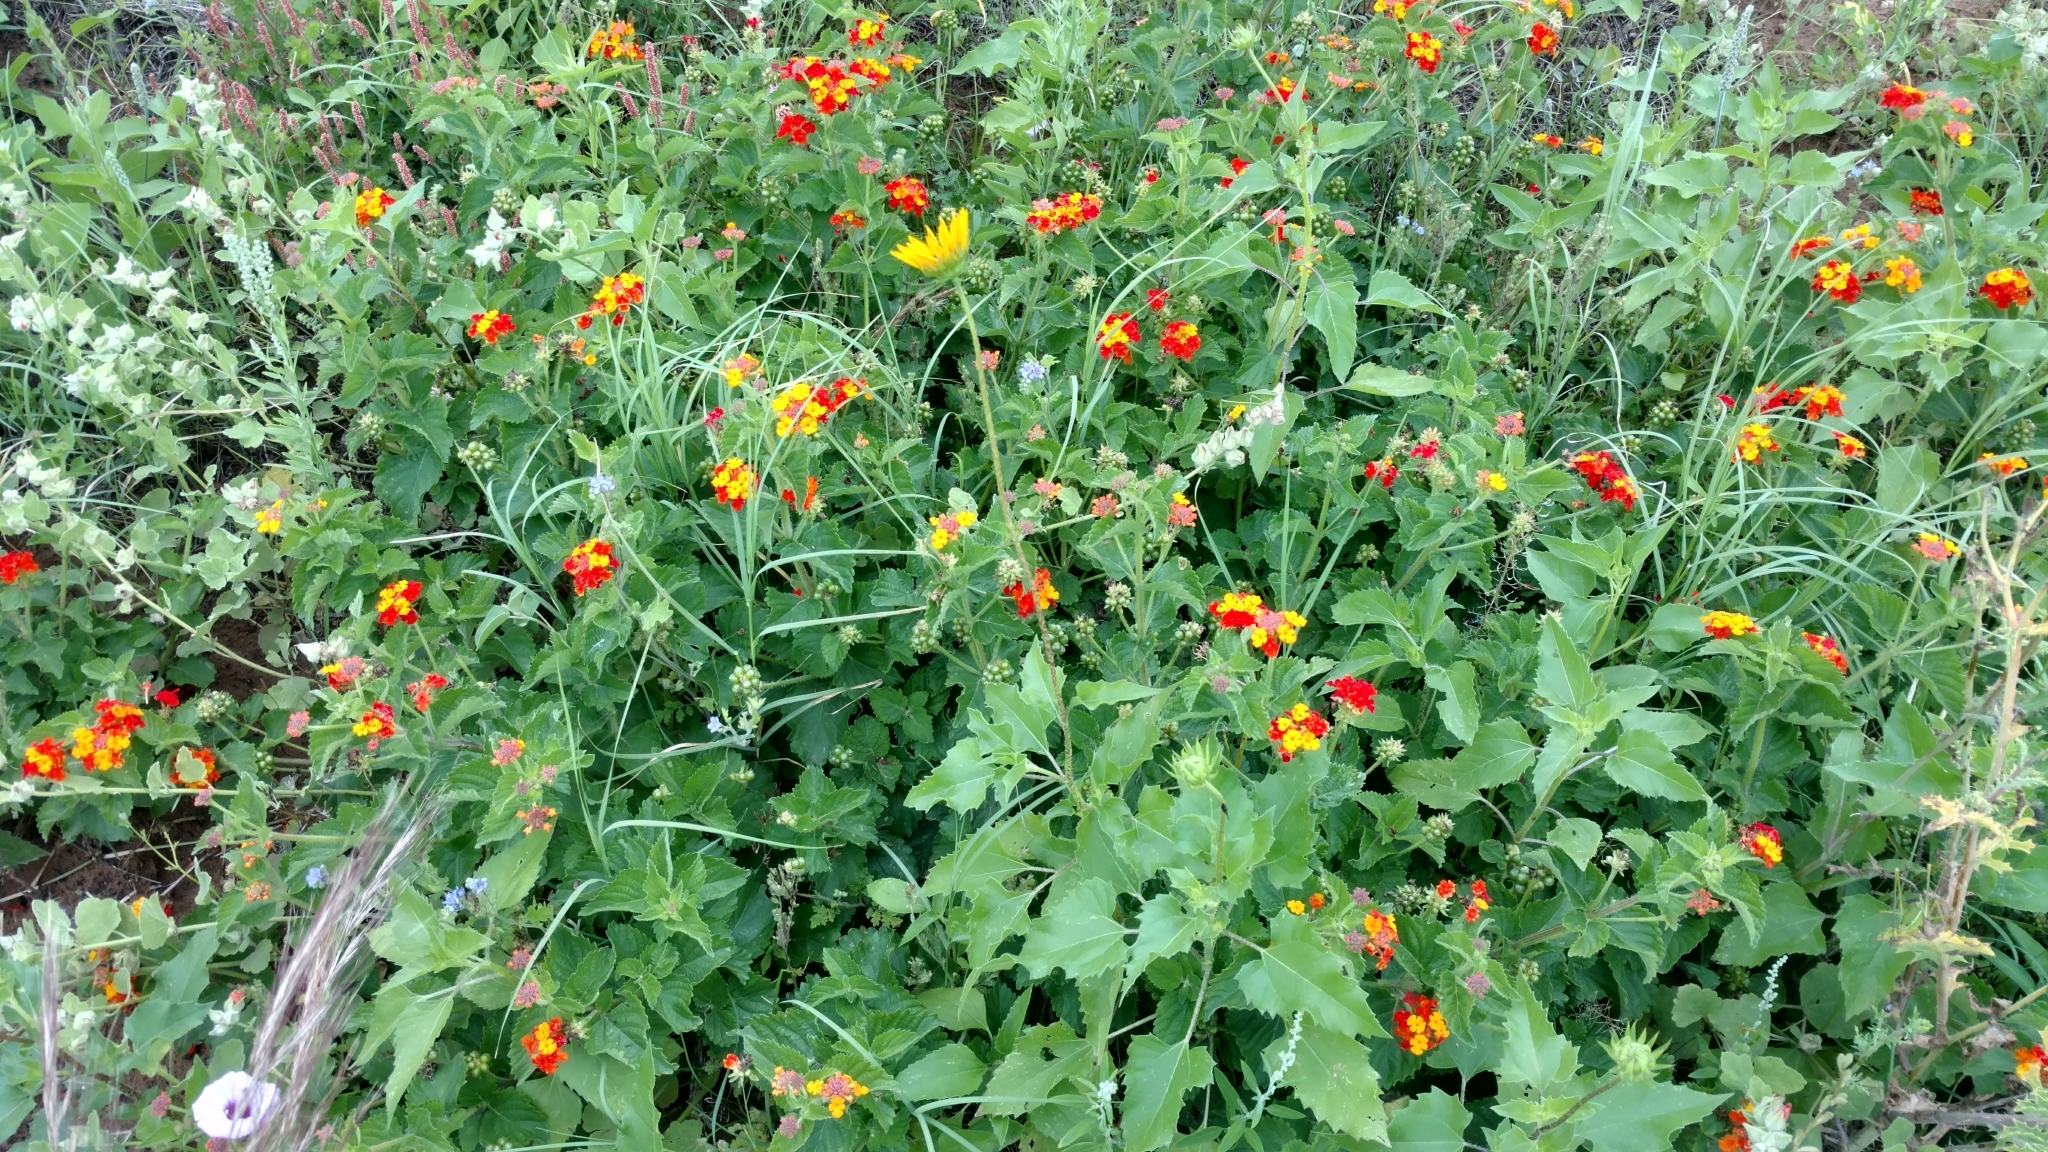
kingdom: Plantae
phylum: Tracheophyta
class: Magnoliopsida
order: Lamiales
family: Verbenaceae
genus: Lantana
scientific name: Lantana urticoides
